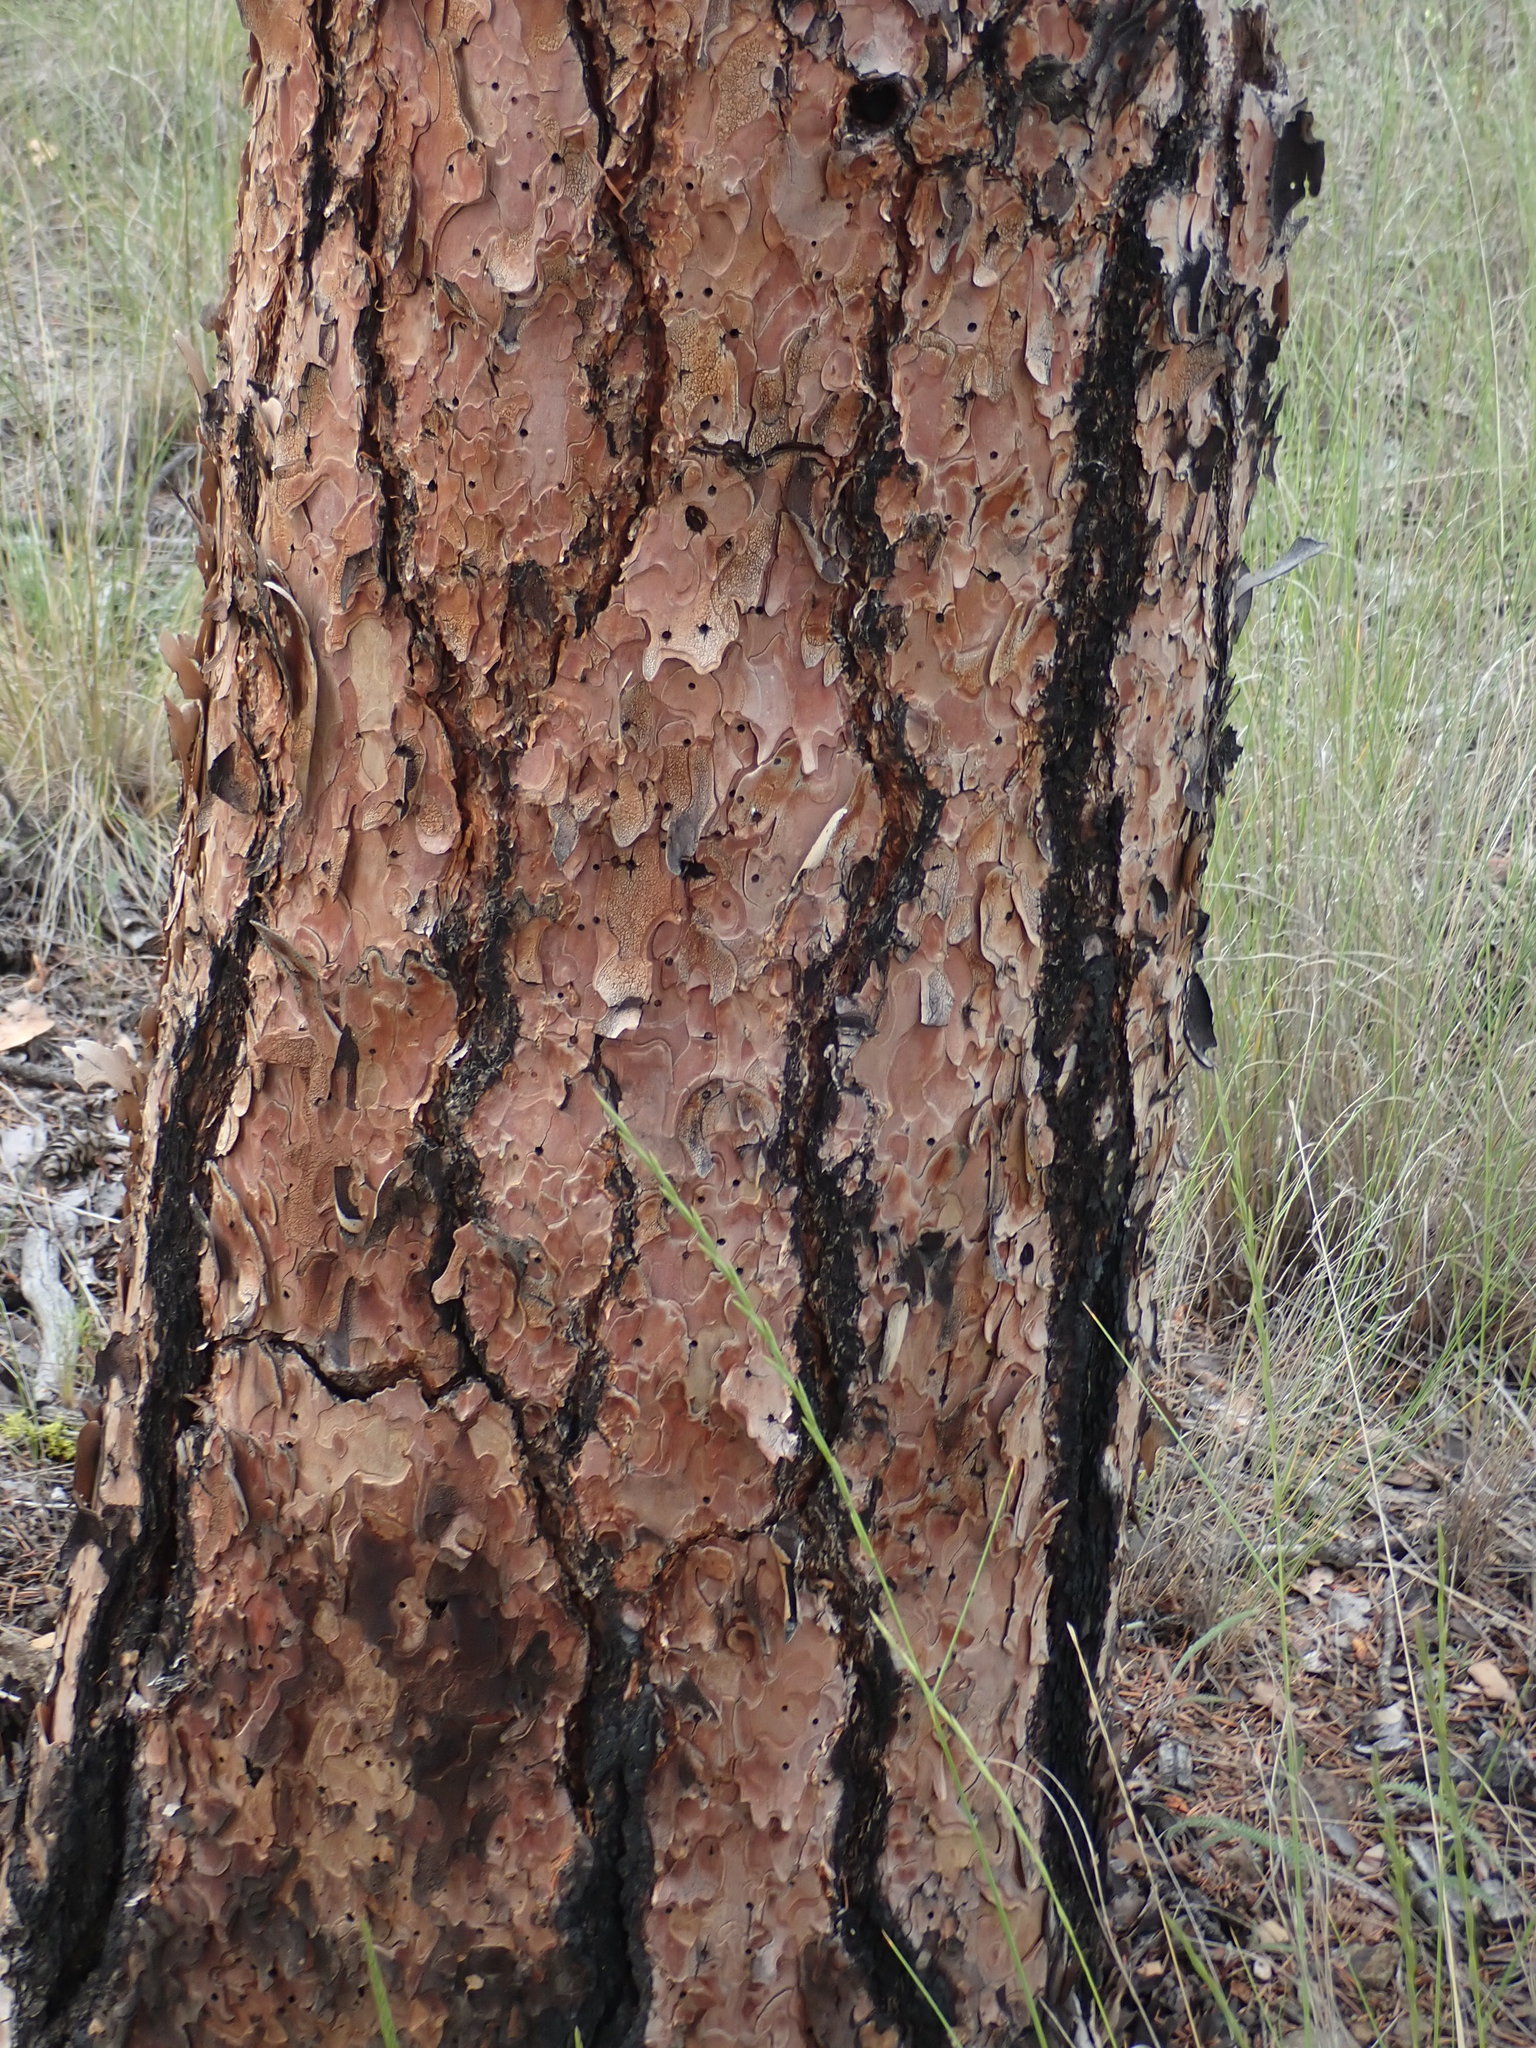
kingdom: Plantae
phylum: Tracheophyta
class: Pinopsida
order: Pinales
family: Pinaceae
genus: Pinus
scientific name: Pinus ponderosa
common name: Western yellow-pine
